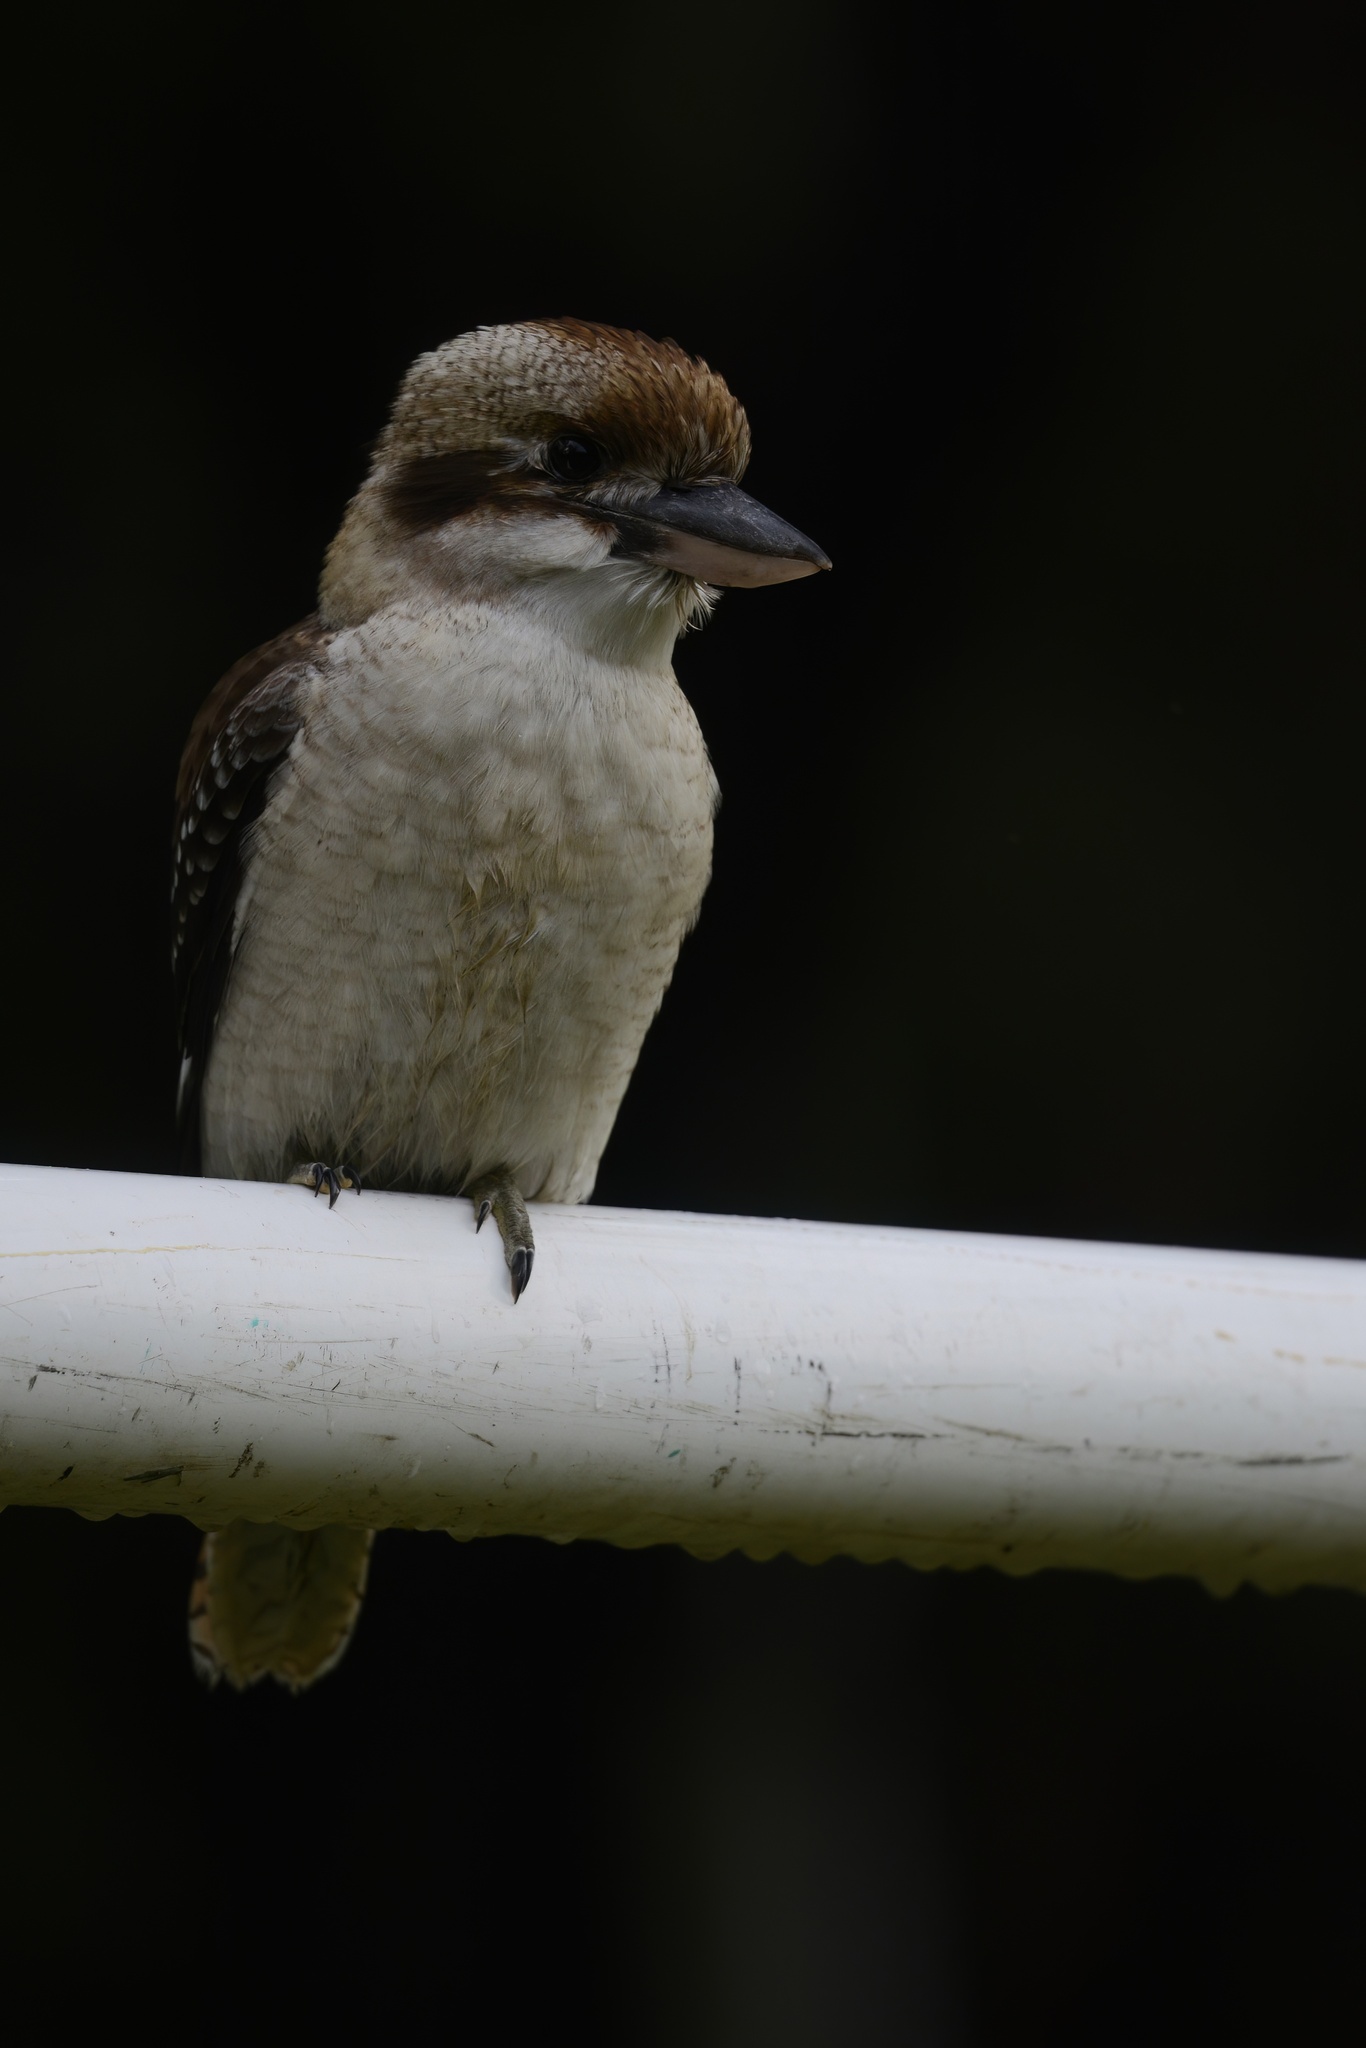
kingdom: Animalia
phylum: Chordata
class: Aves
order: Coraciiformes
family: Alcedinidae
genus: Dacelo
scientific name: Dacelo novaeguineae
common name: Laughing kookaburra
